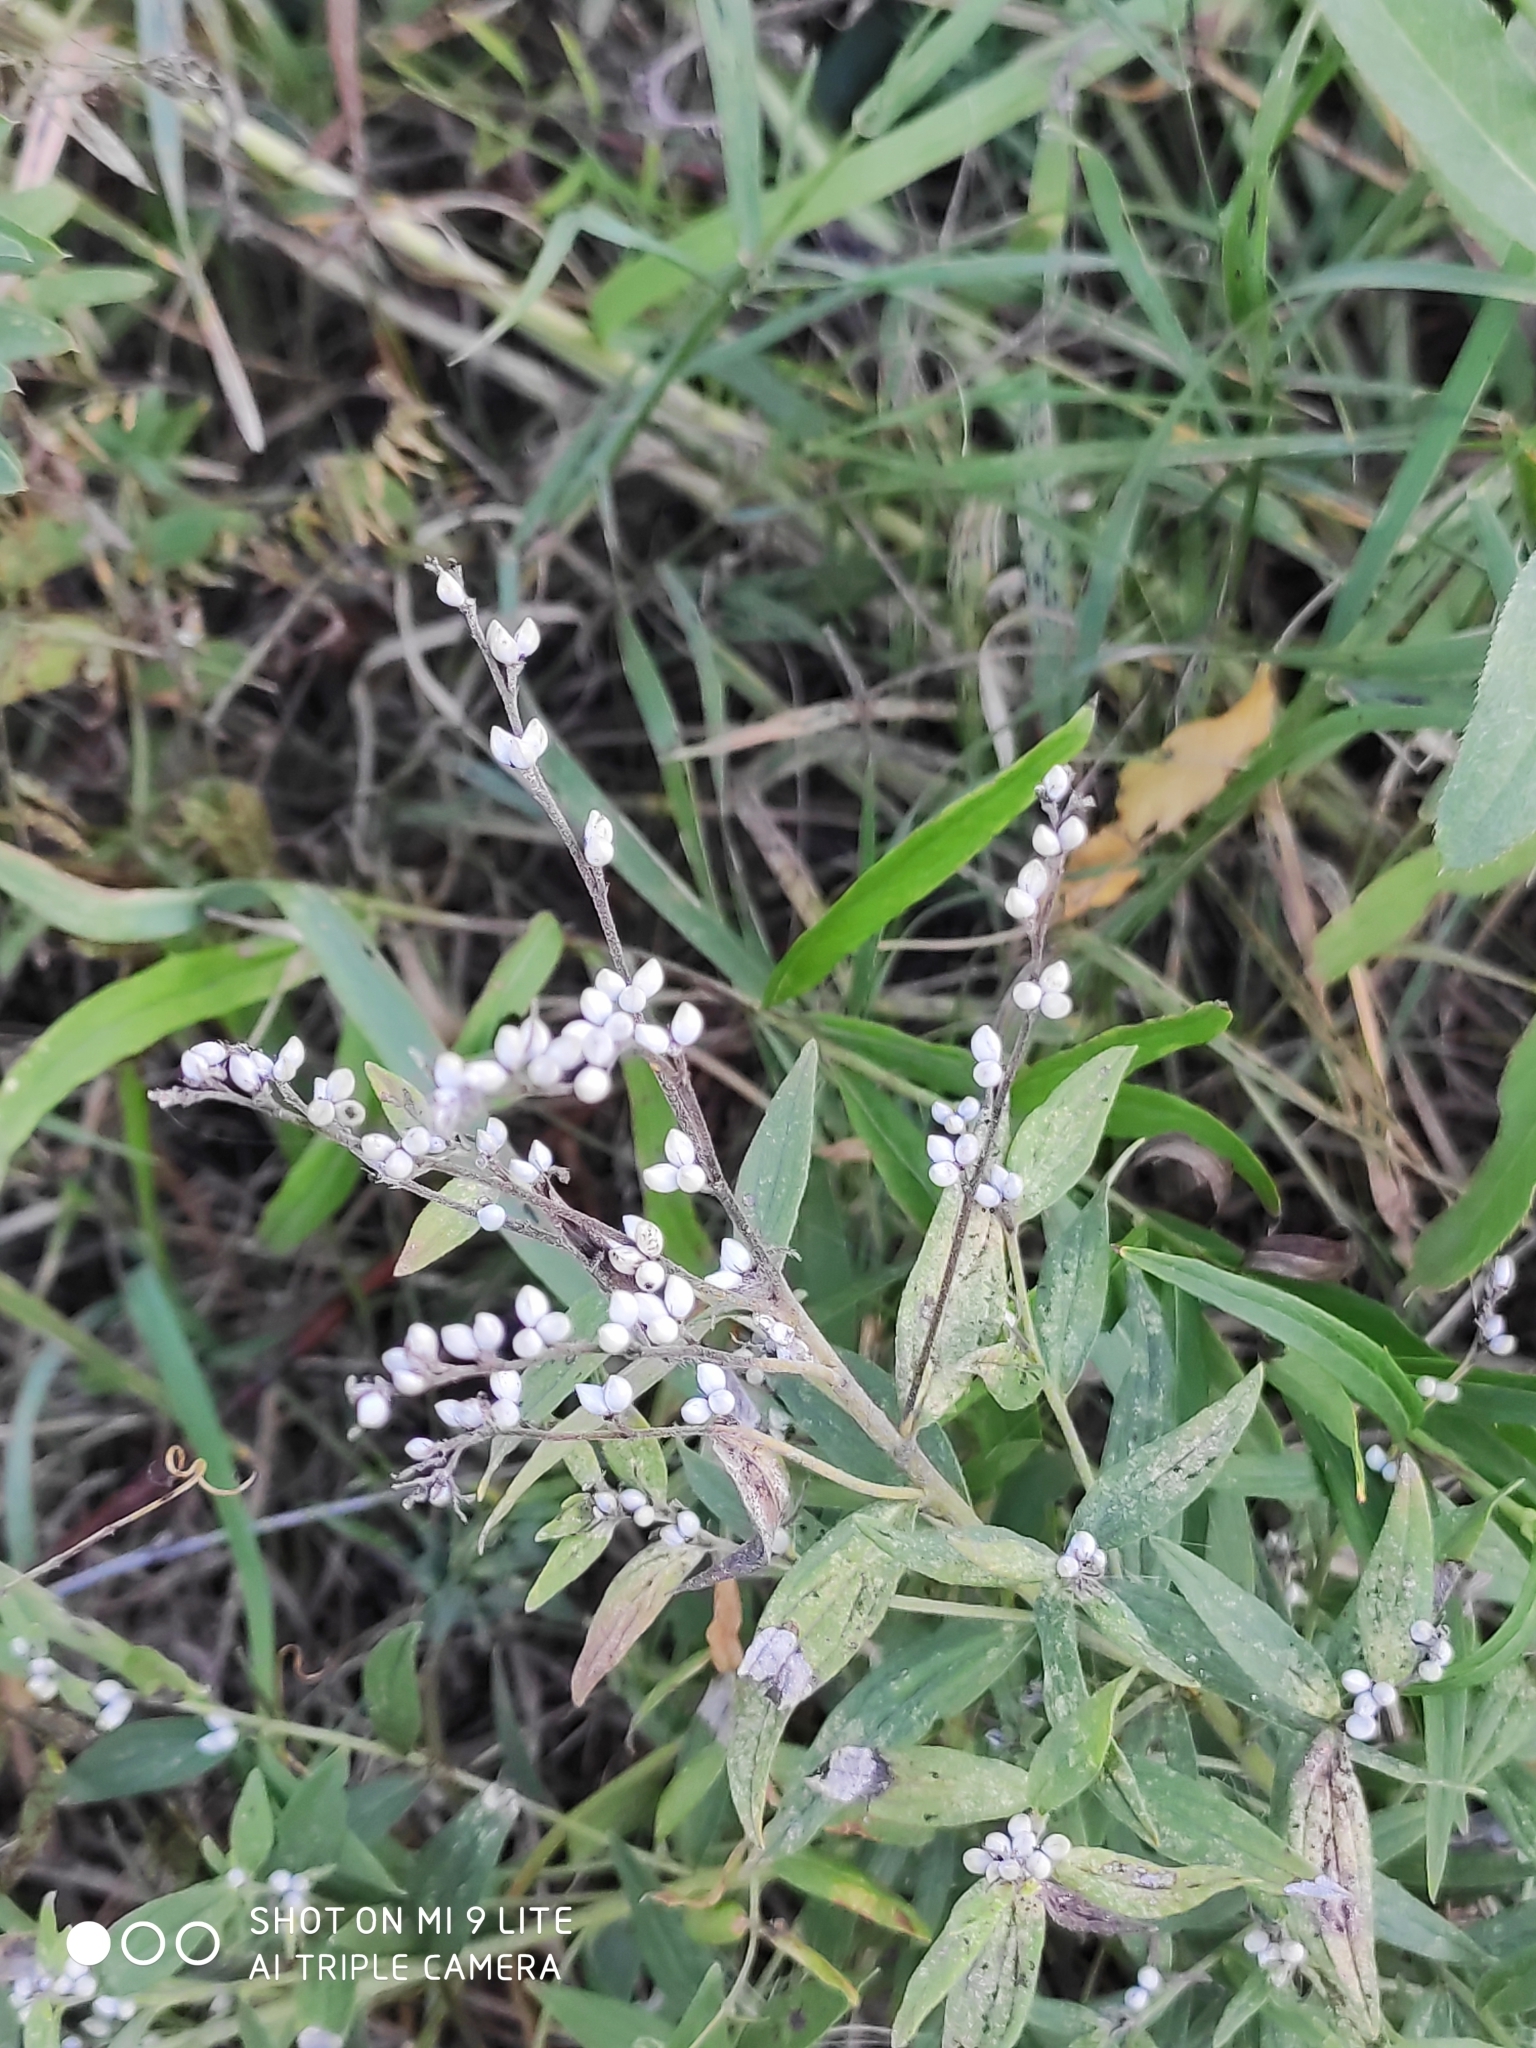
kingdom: Plantae
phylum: Tracheophyta
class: Magnoliopsida
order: Boraginales
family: Boraginaceae
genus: Lithospermum
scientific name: Lithospermum officinale
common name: Common gromwell
